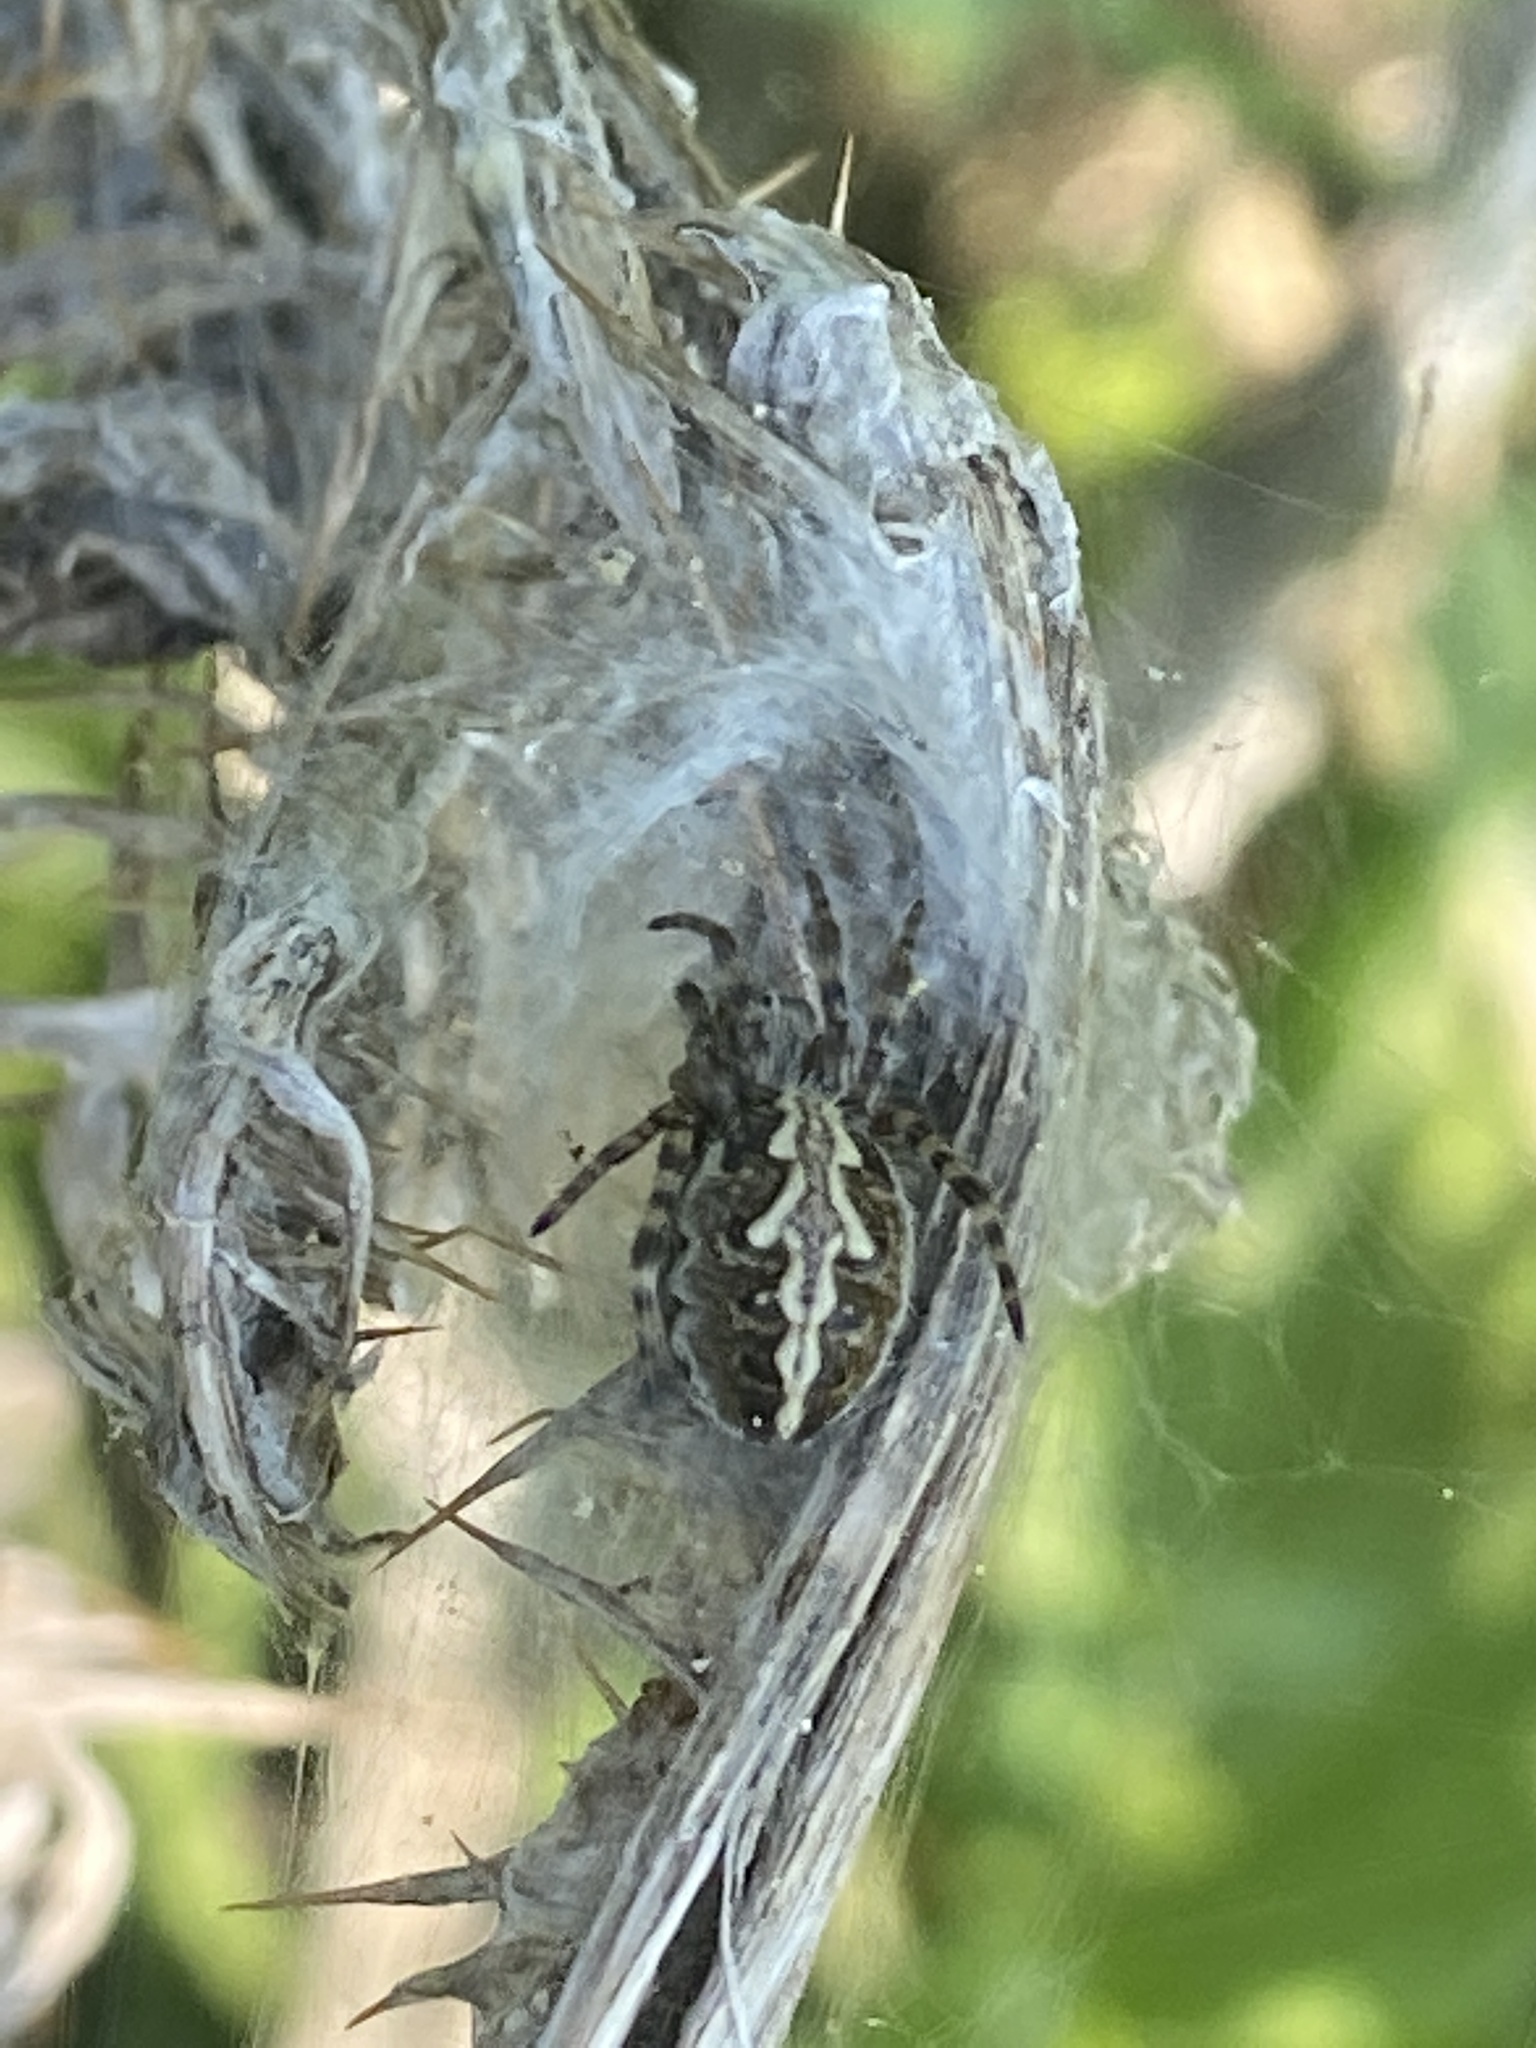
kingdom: Animalia
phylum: Arthropoda
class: Arachnida
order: Araneae
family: Araneidae
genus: Aculepeira
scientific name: Aculepeira ceropegia
